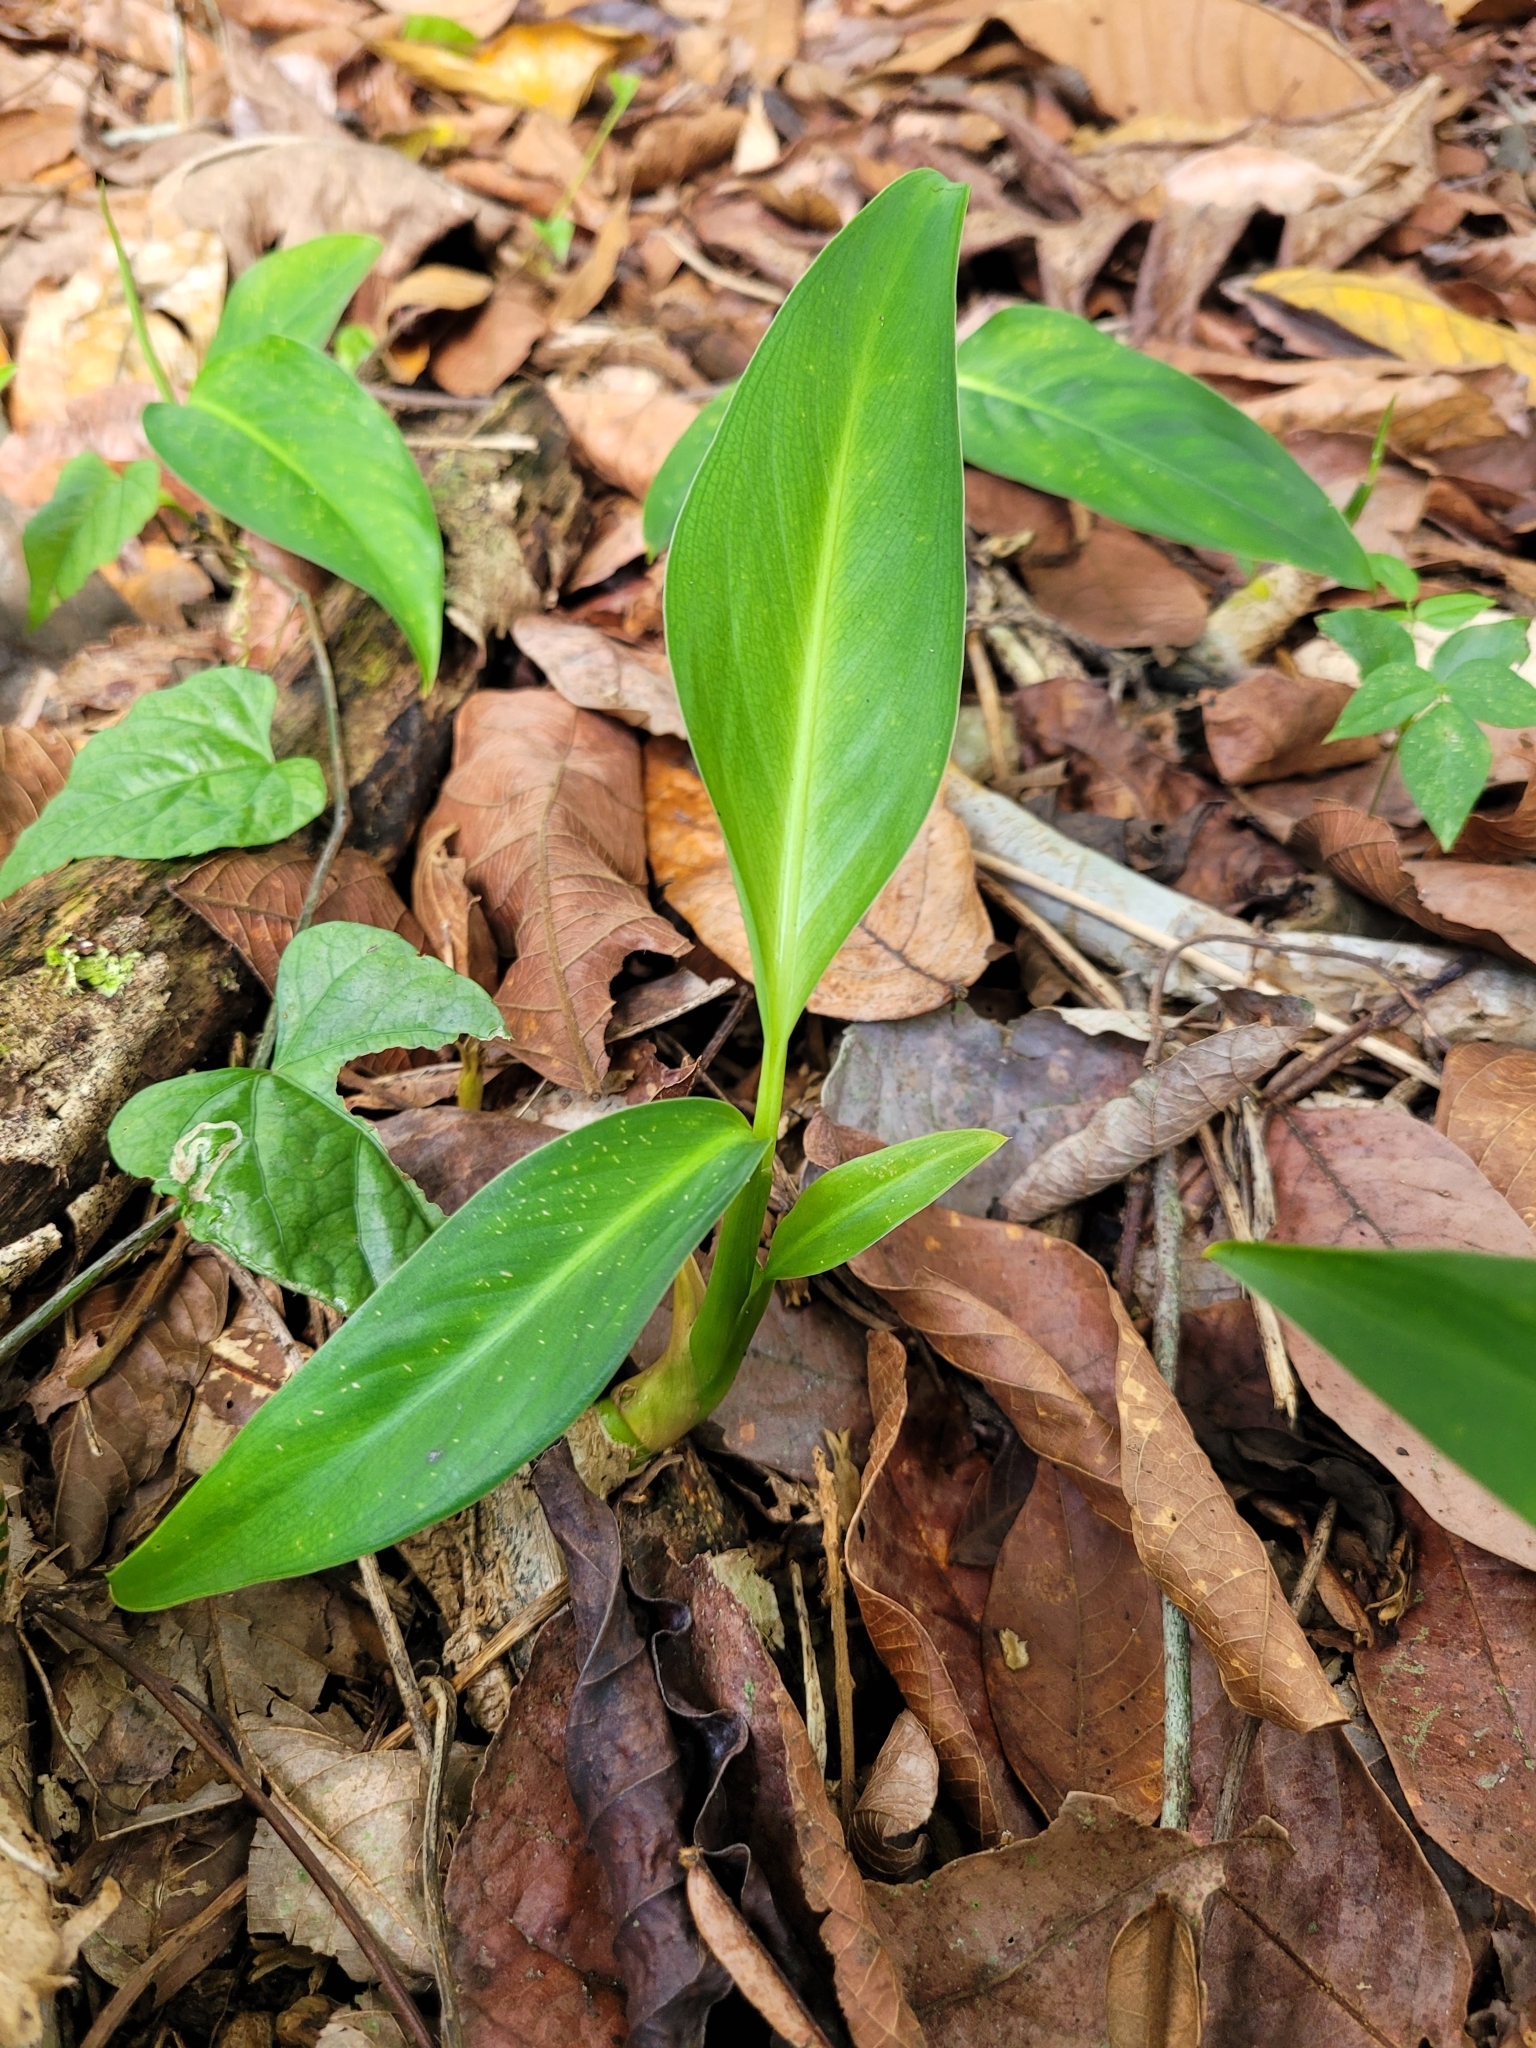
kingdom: Plantae
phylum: Tracheophyta
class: Liliopsida
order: Alismatales
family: Araceae
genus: Dieffenbachia
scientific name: Dieffenbachia seguine
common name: Dumbcane
